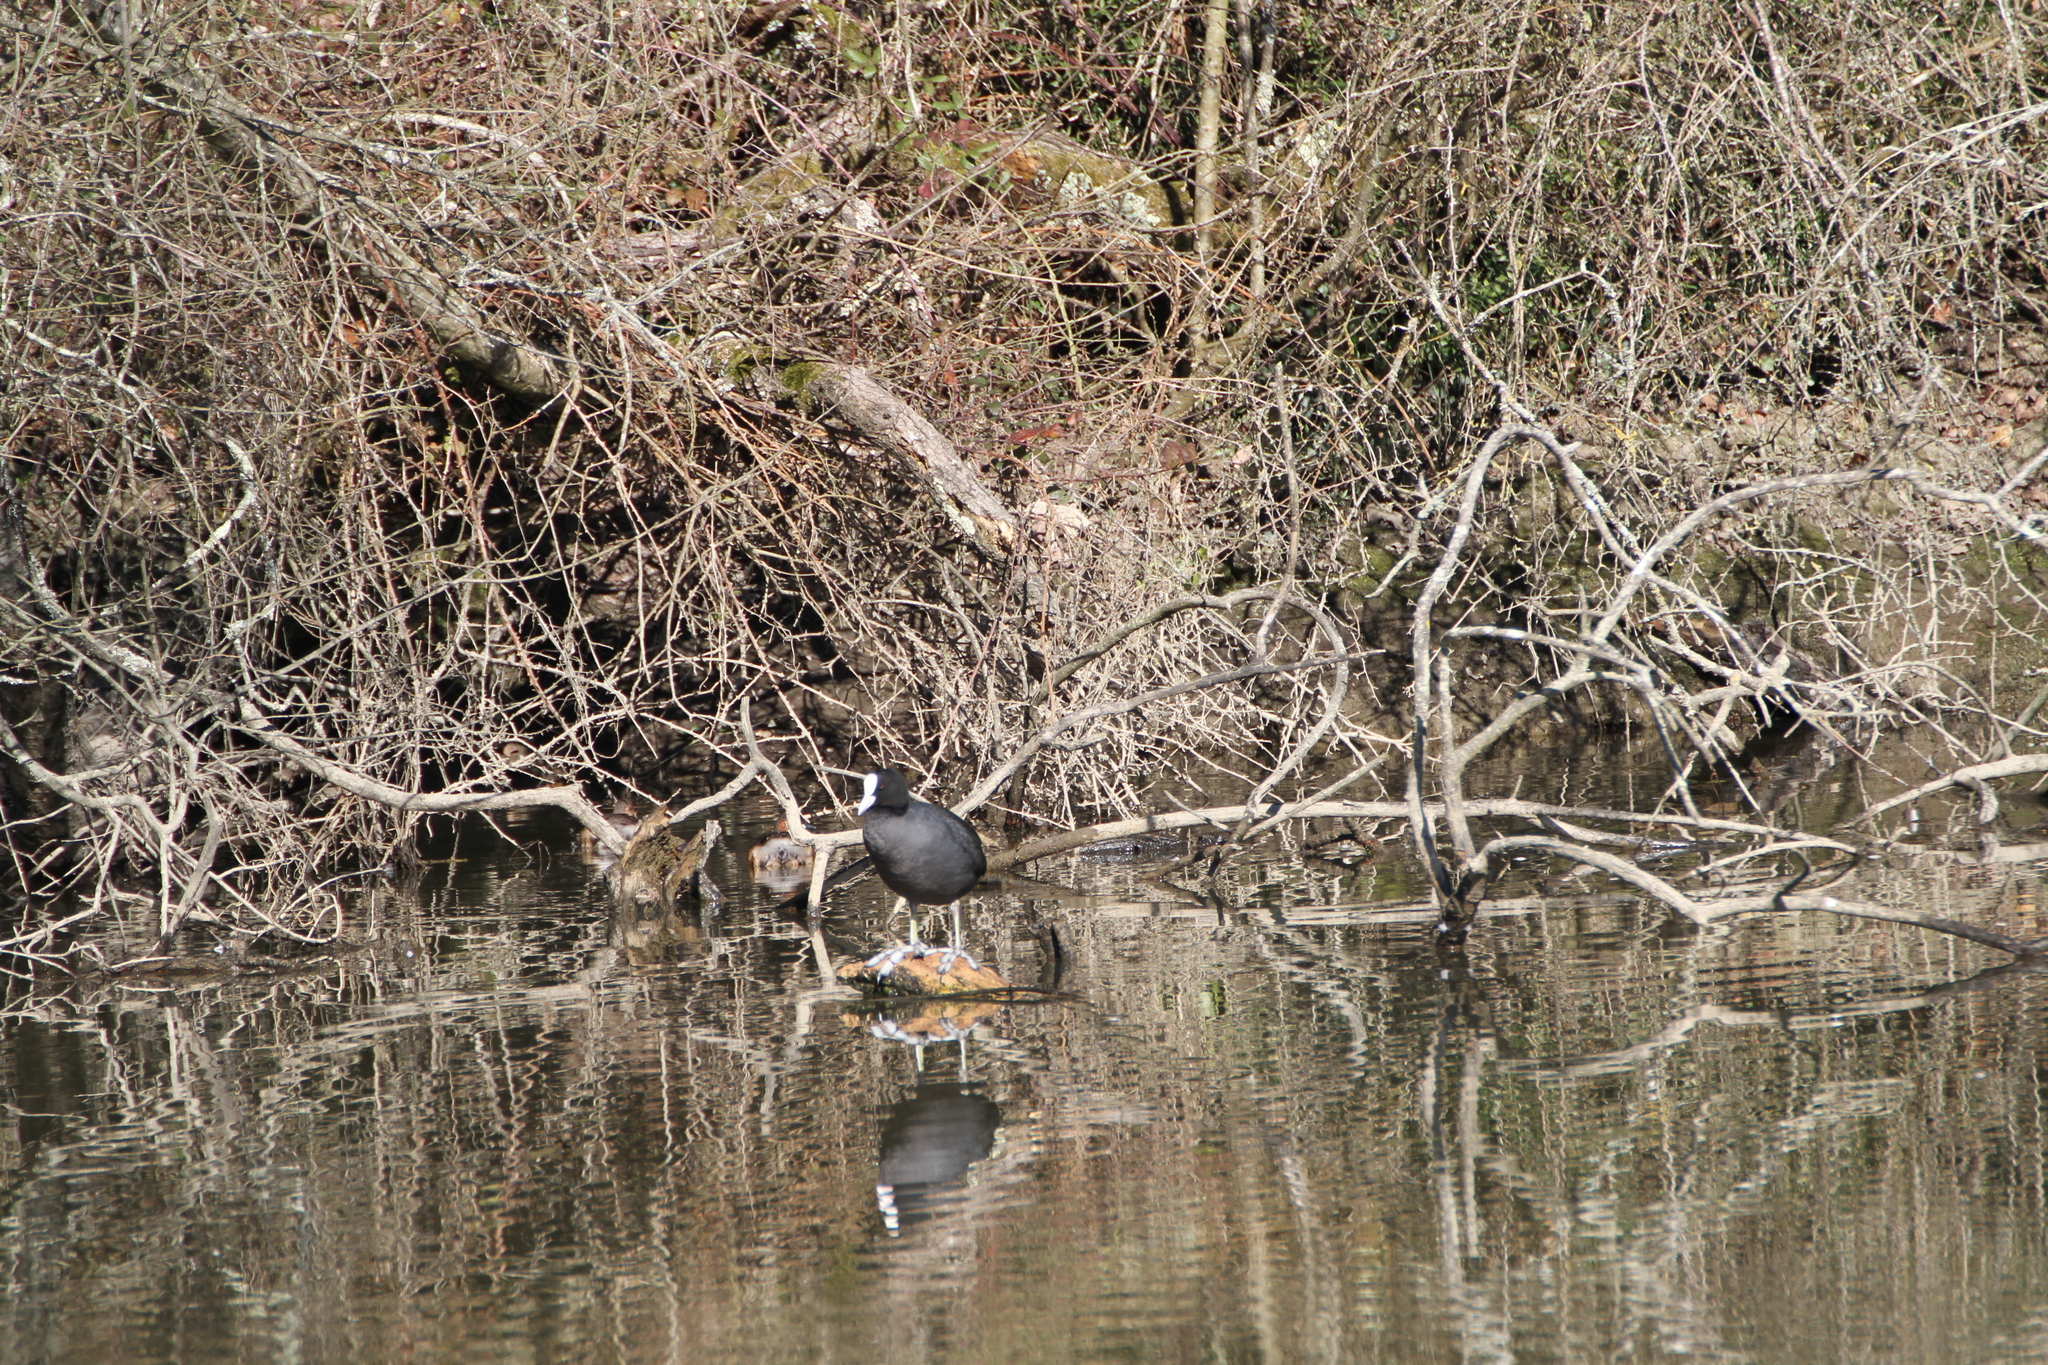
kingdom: Animalia
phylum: Chordata
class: Aves
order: Gruiformes
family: Rallidae
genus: Fulica
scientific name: Fulica atra
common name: Eurasian coot
